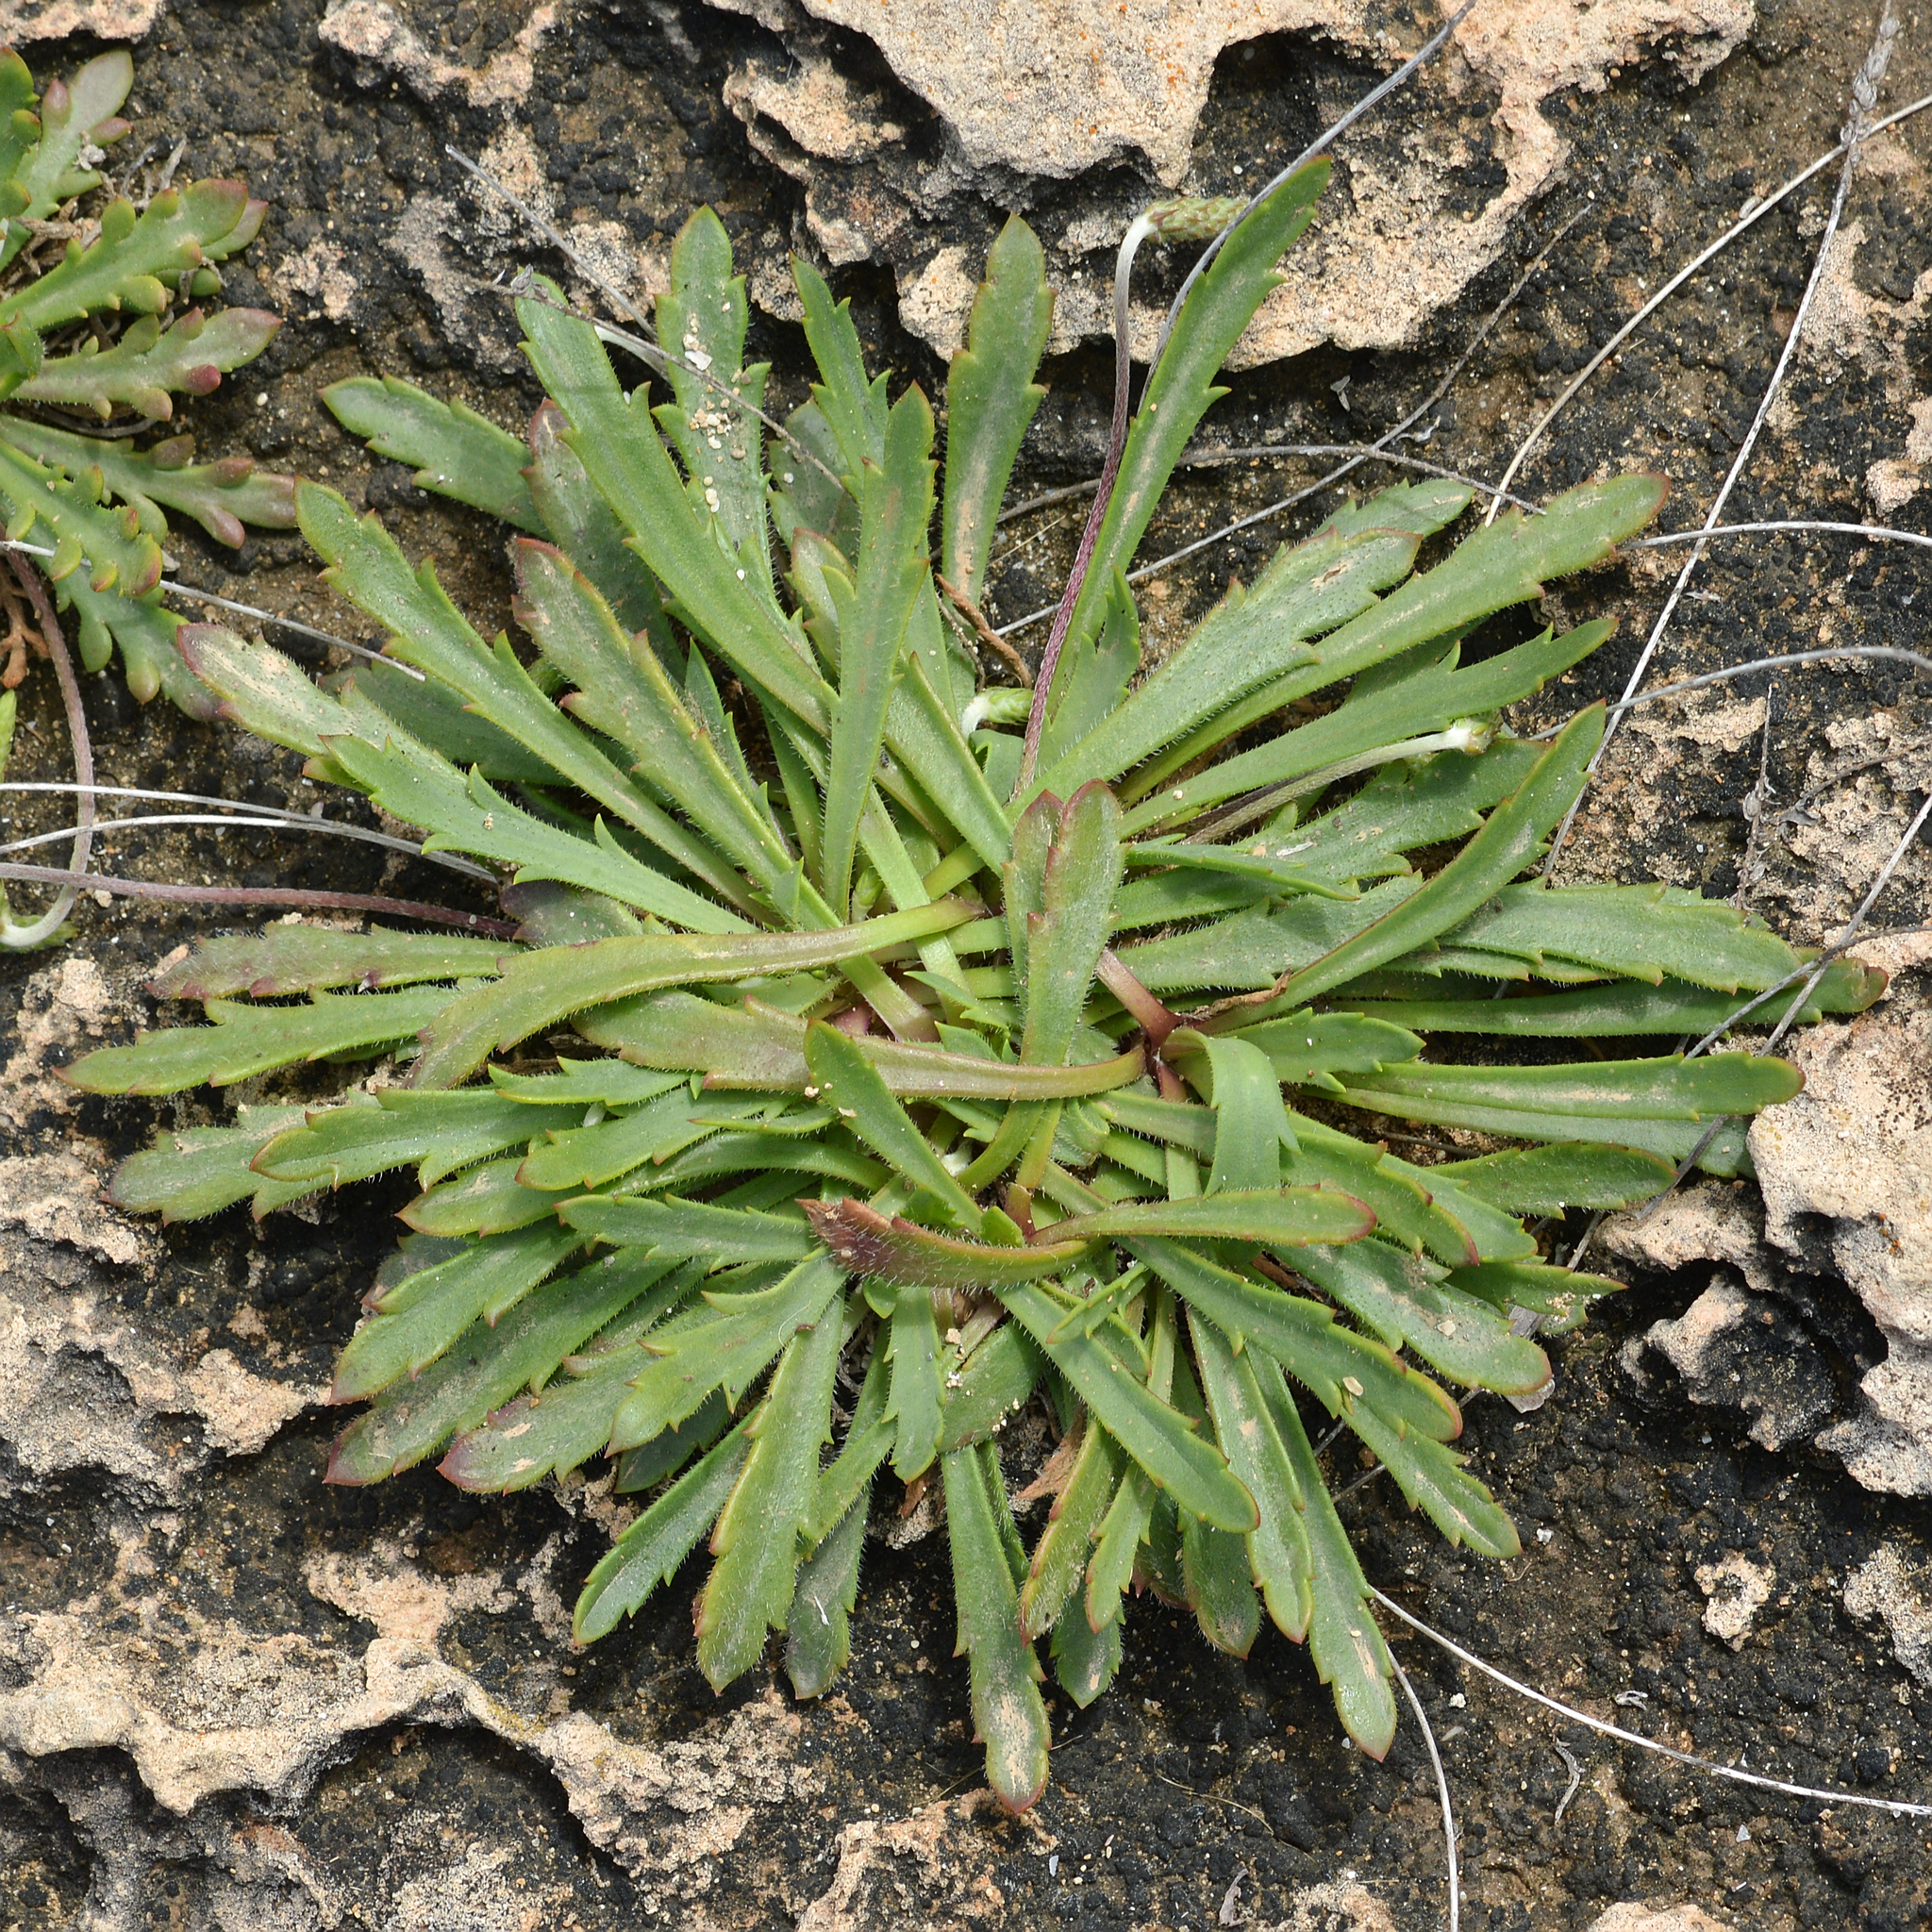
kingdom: Plantae
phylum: Tracheophyta
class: Magnoliopsida
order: Lamiales
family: Plantaginaceae
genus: Plantago
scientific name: Plantago coronopus
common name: Buck's-horn plantain
